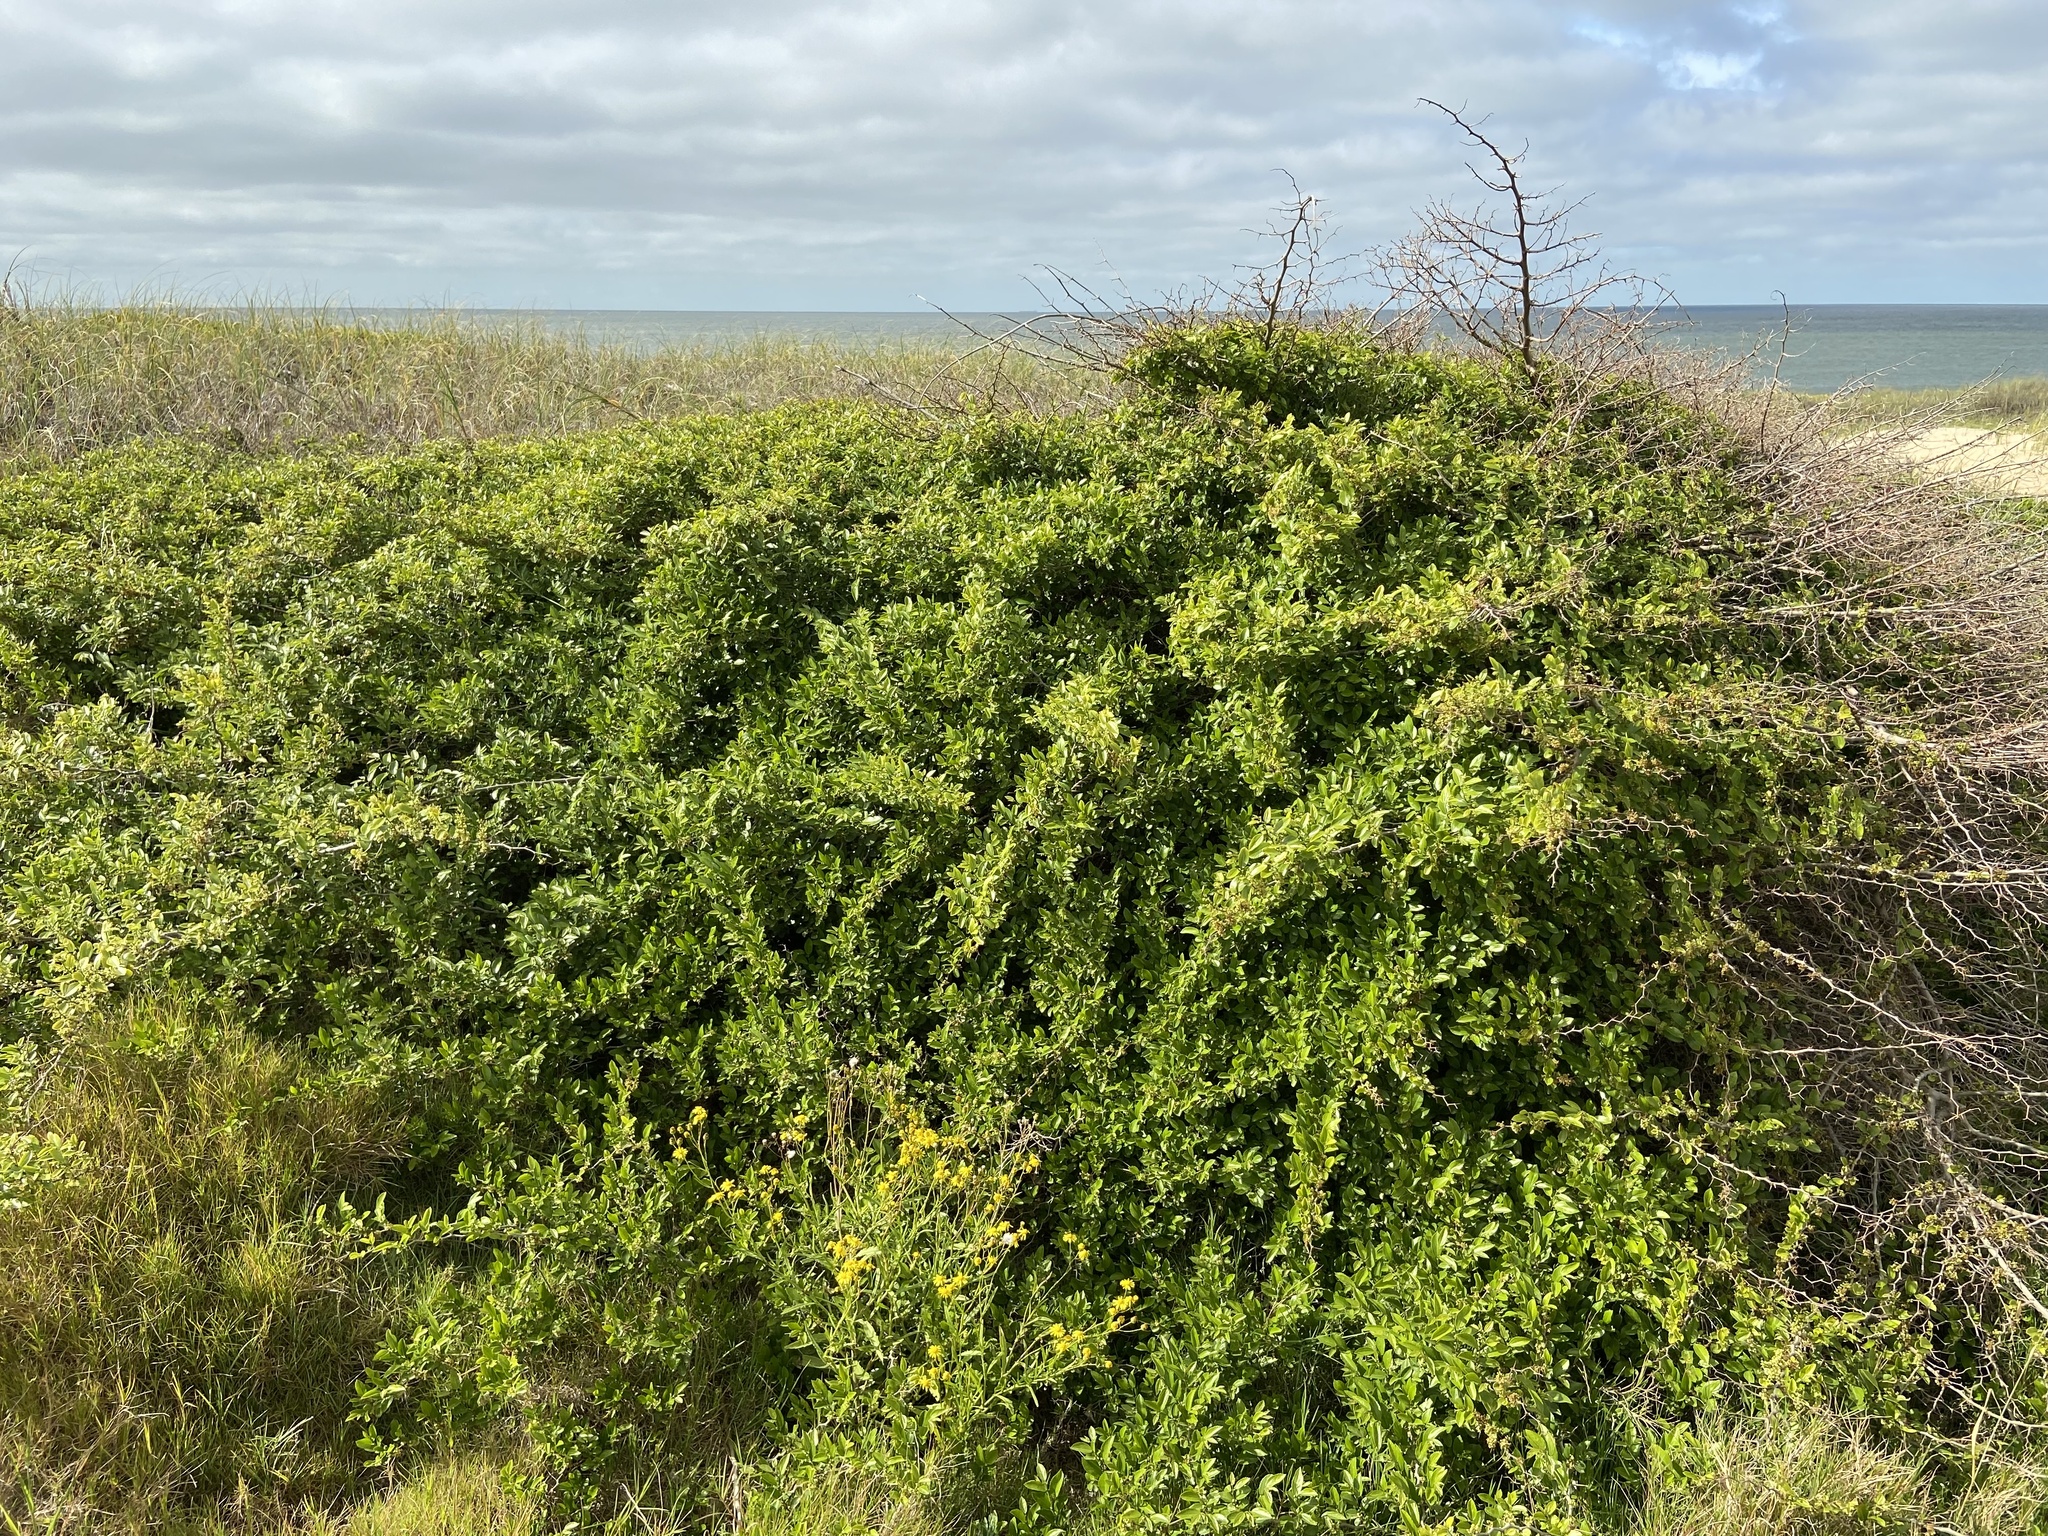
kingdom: Plantae
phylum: Tracheophyta
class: Magnoliopsida
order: Rosales
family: Cannabaceae
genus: Celtis
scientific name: Celtis iguanaea
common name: Iguana hackberry
